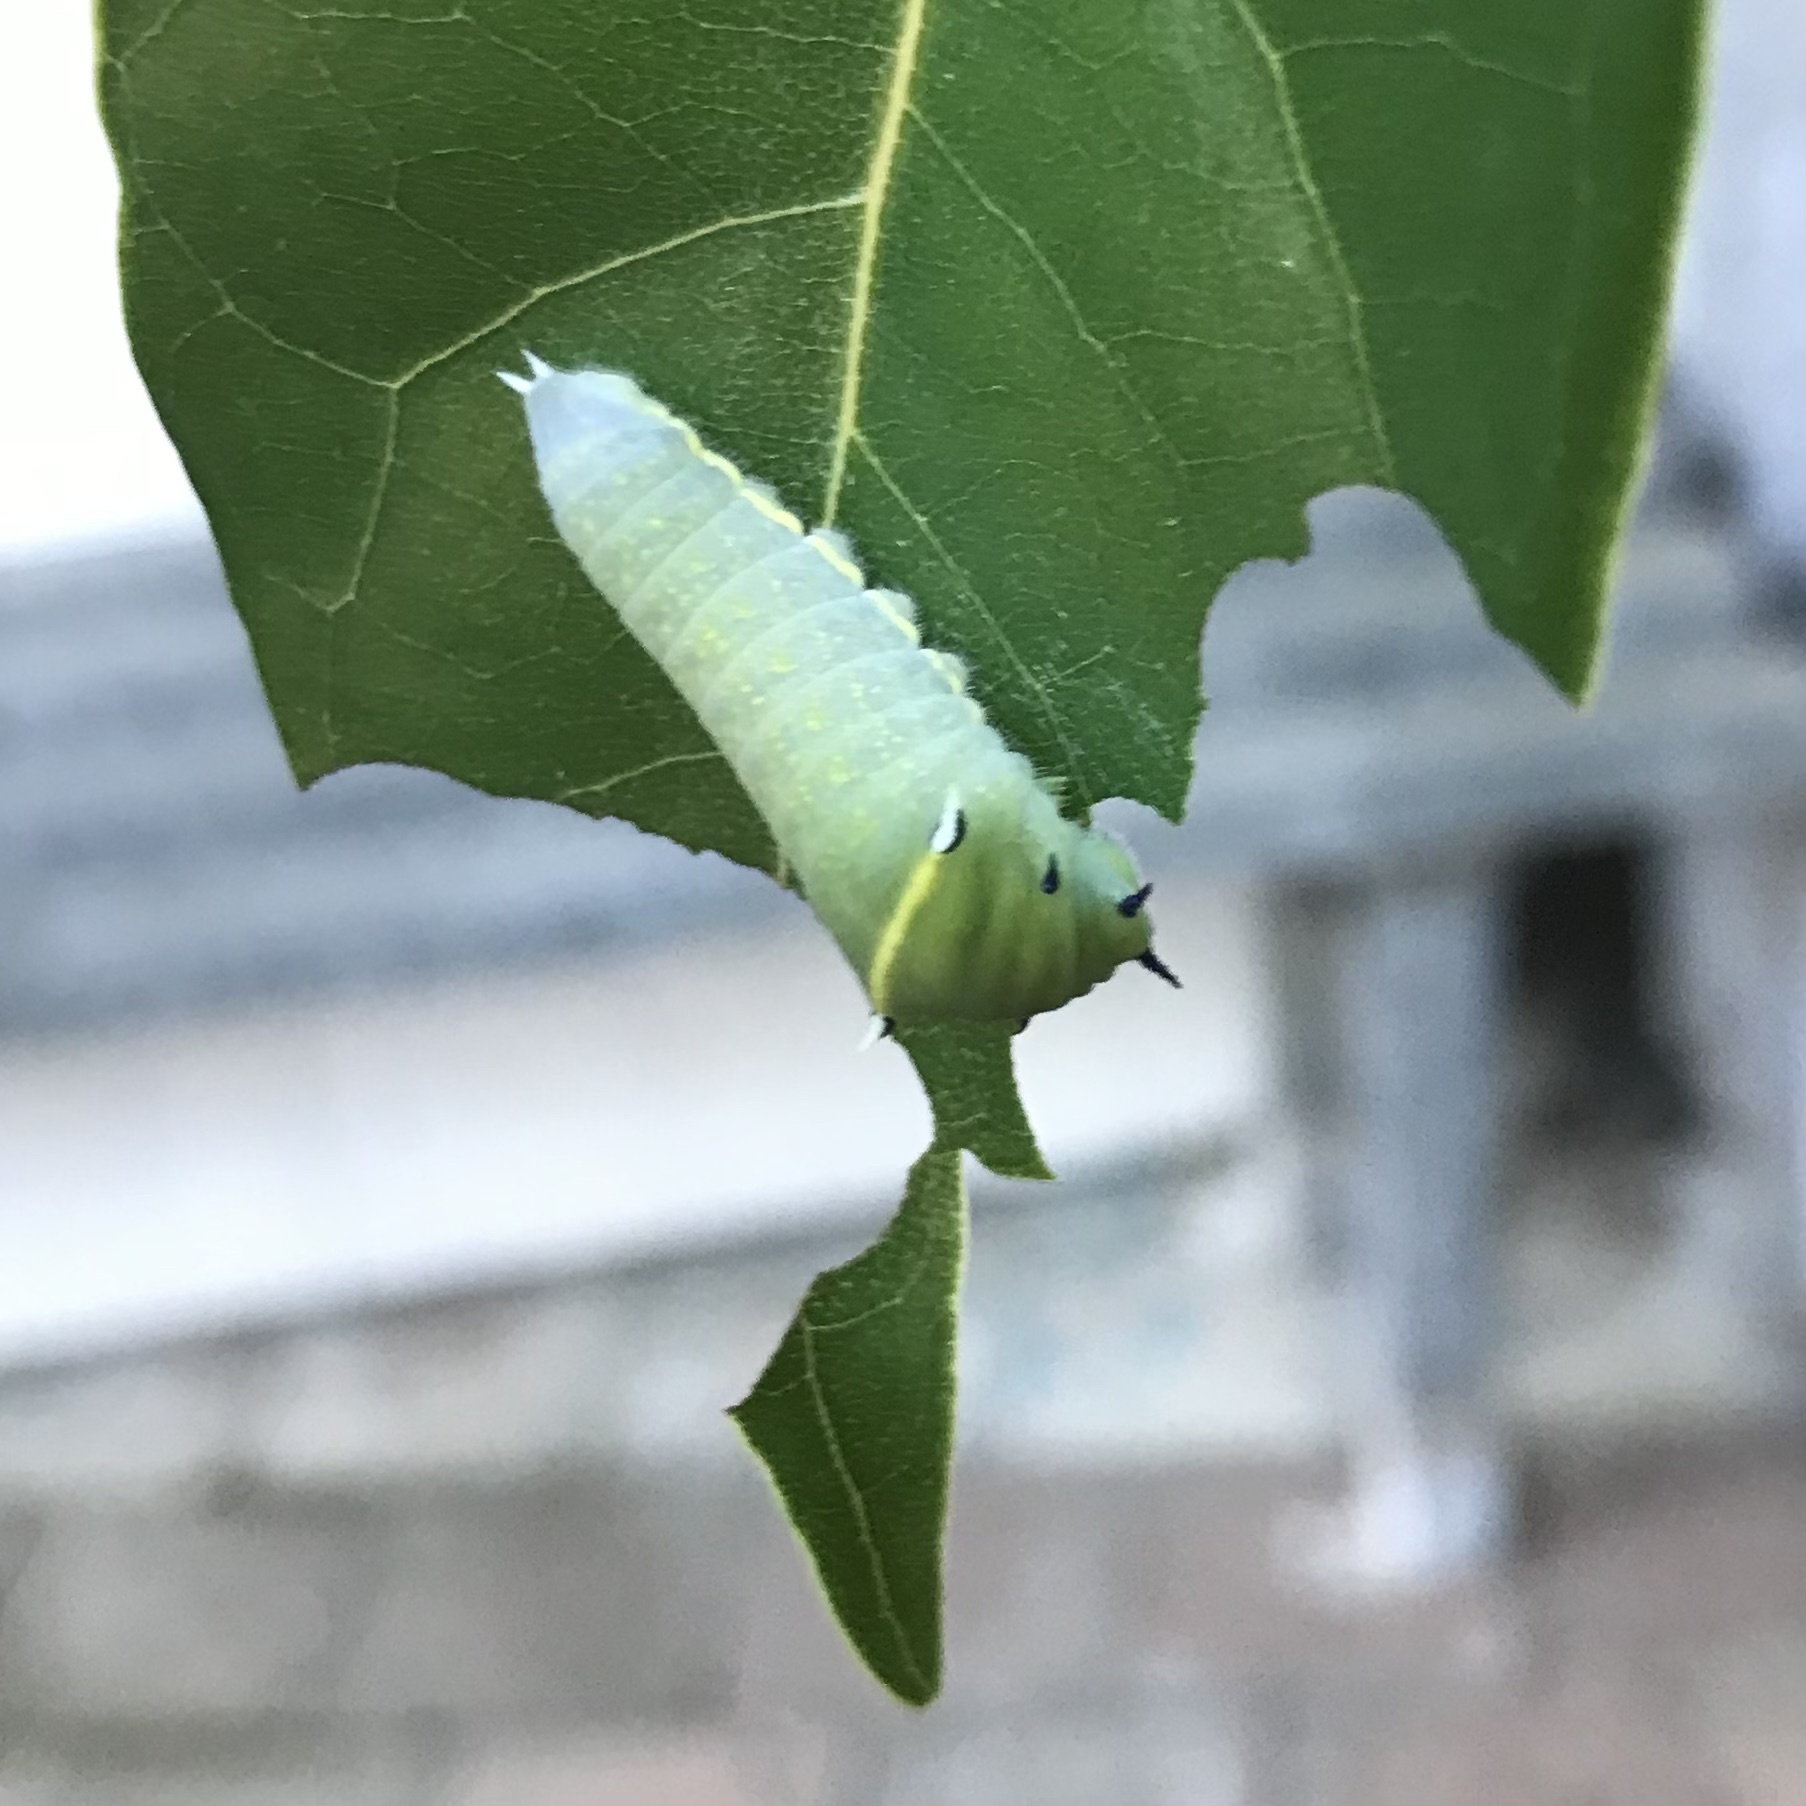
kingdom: Animalia
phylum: Arthropoda
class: Insecta
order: Lepidoptera
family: Papilionidae
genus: Graphium
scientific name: Graphium
